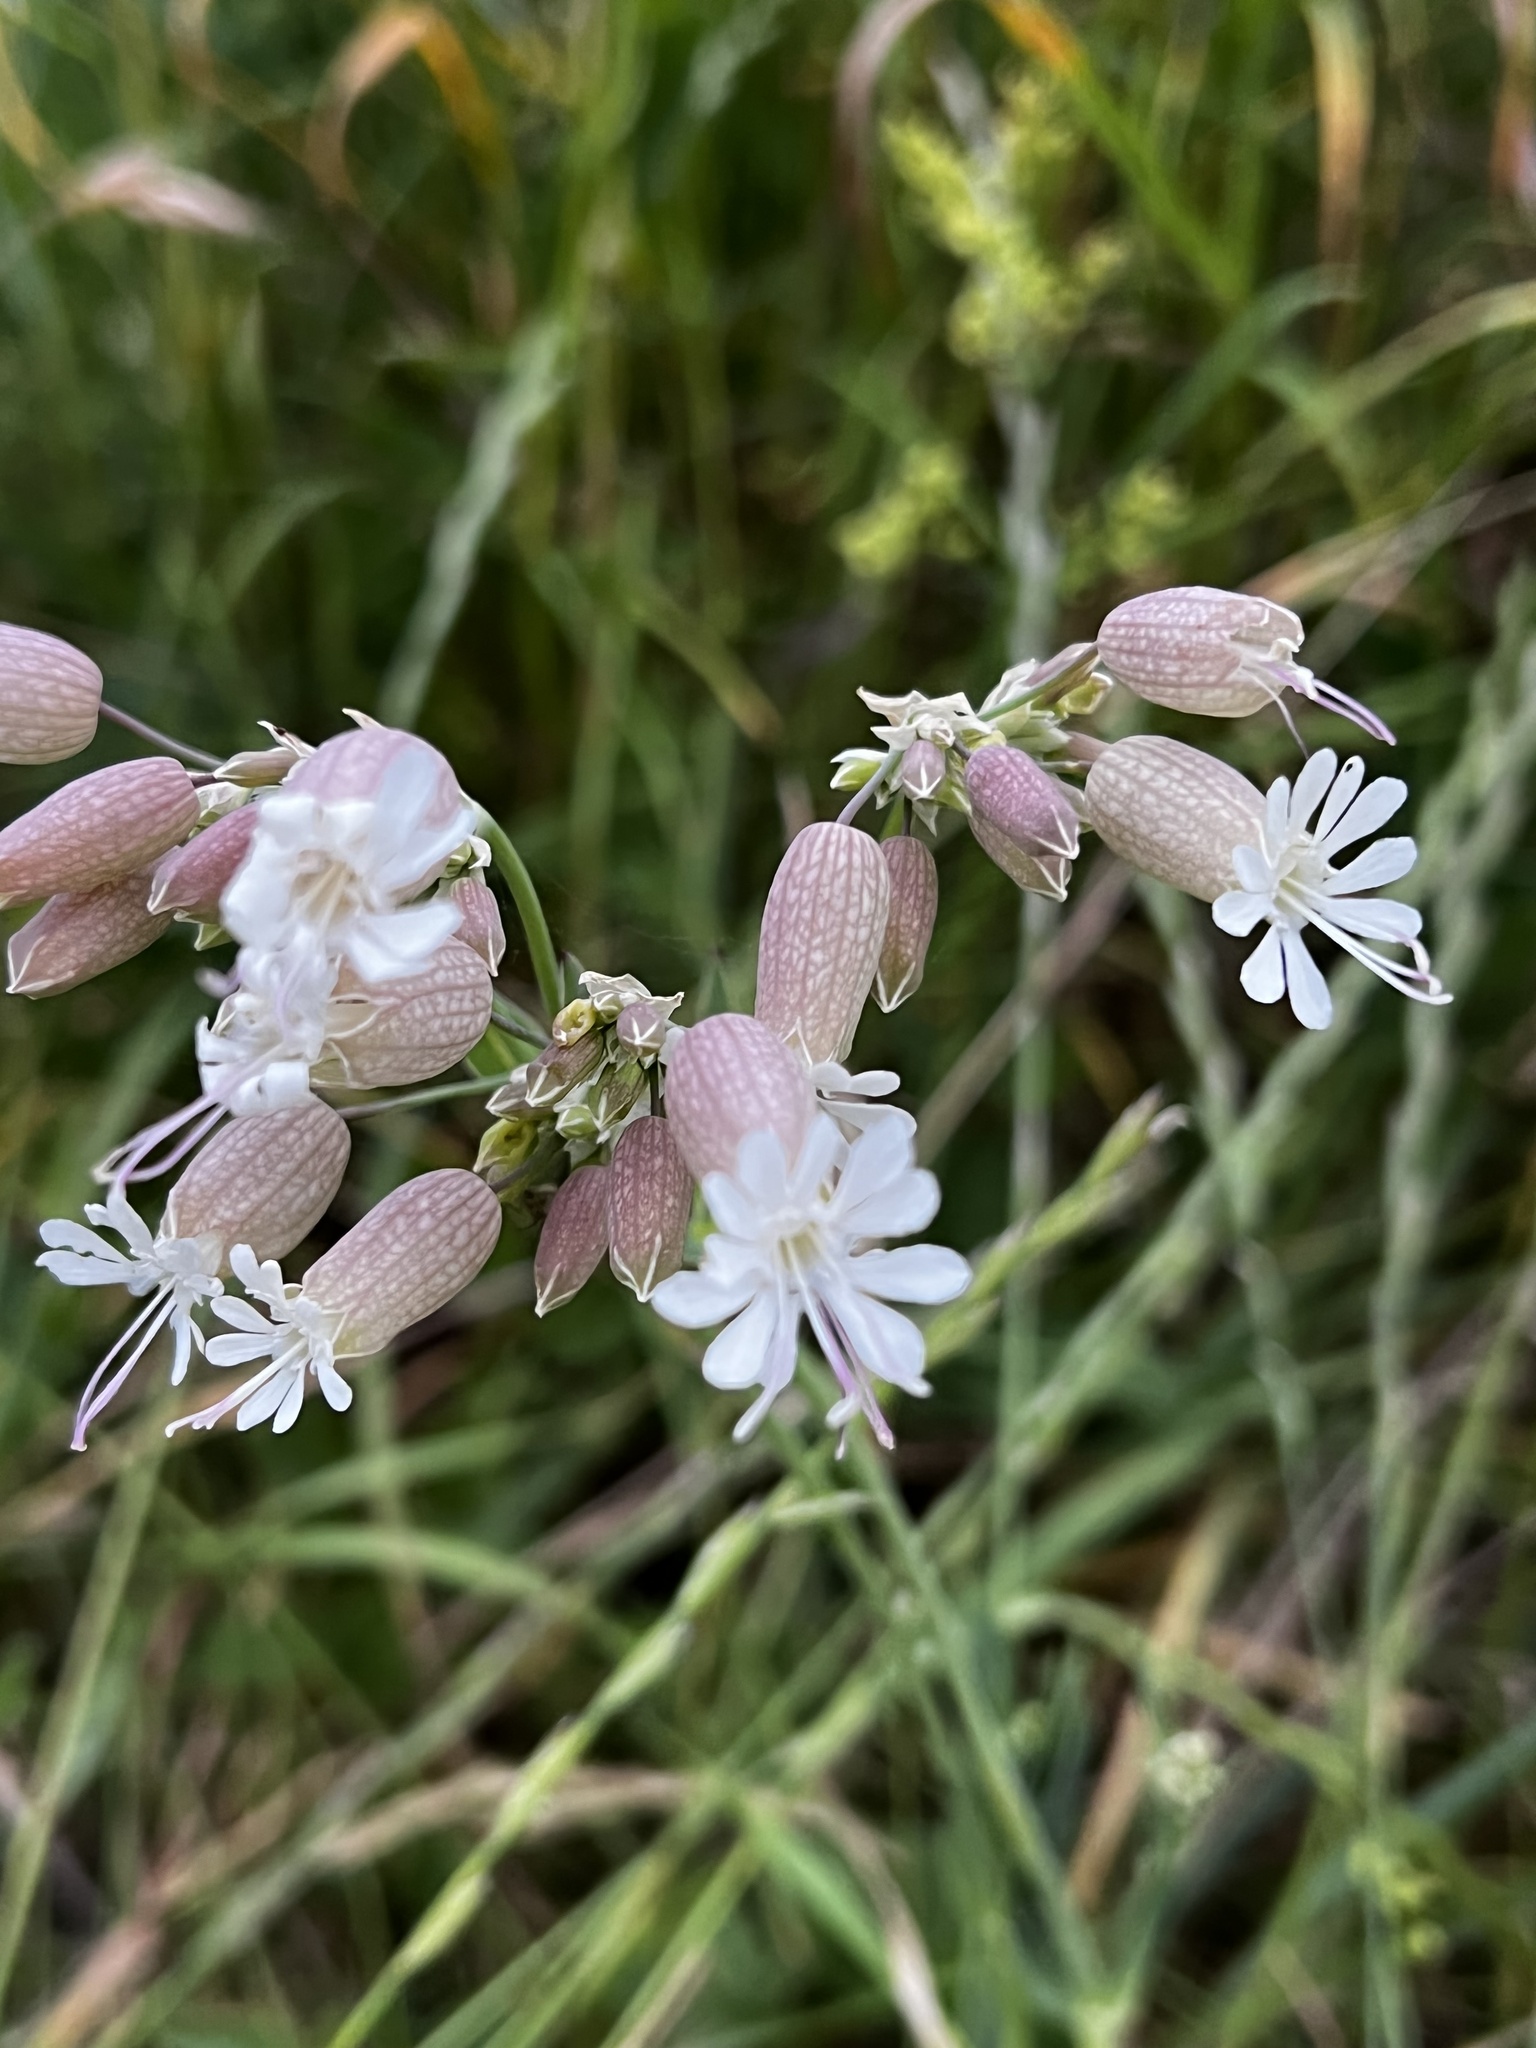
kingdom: Plantae
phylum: Tracheophyta
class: Magnoliopsida
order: Caryophyllales
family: Caryophyllaceae
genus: Silene
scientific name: Silene vulgaris
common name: Bladder campion
